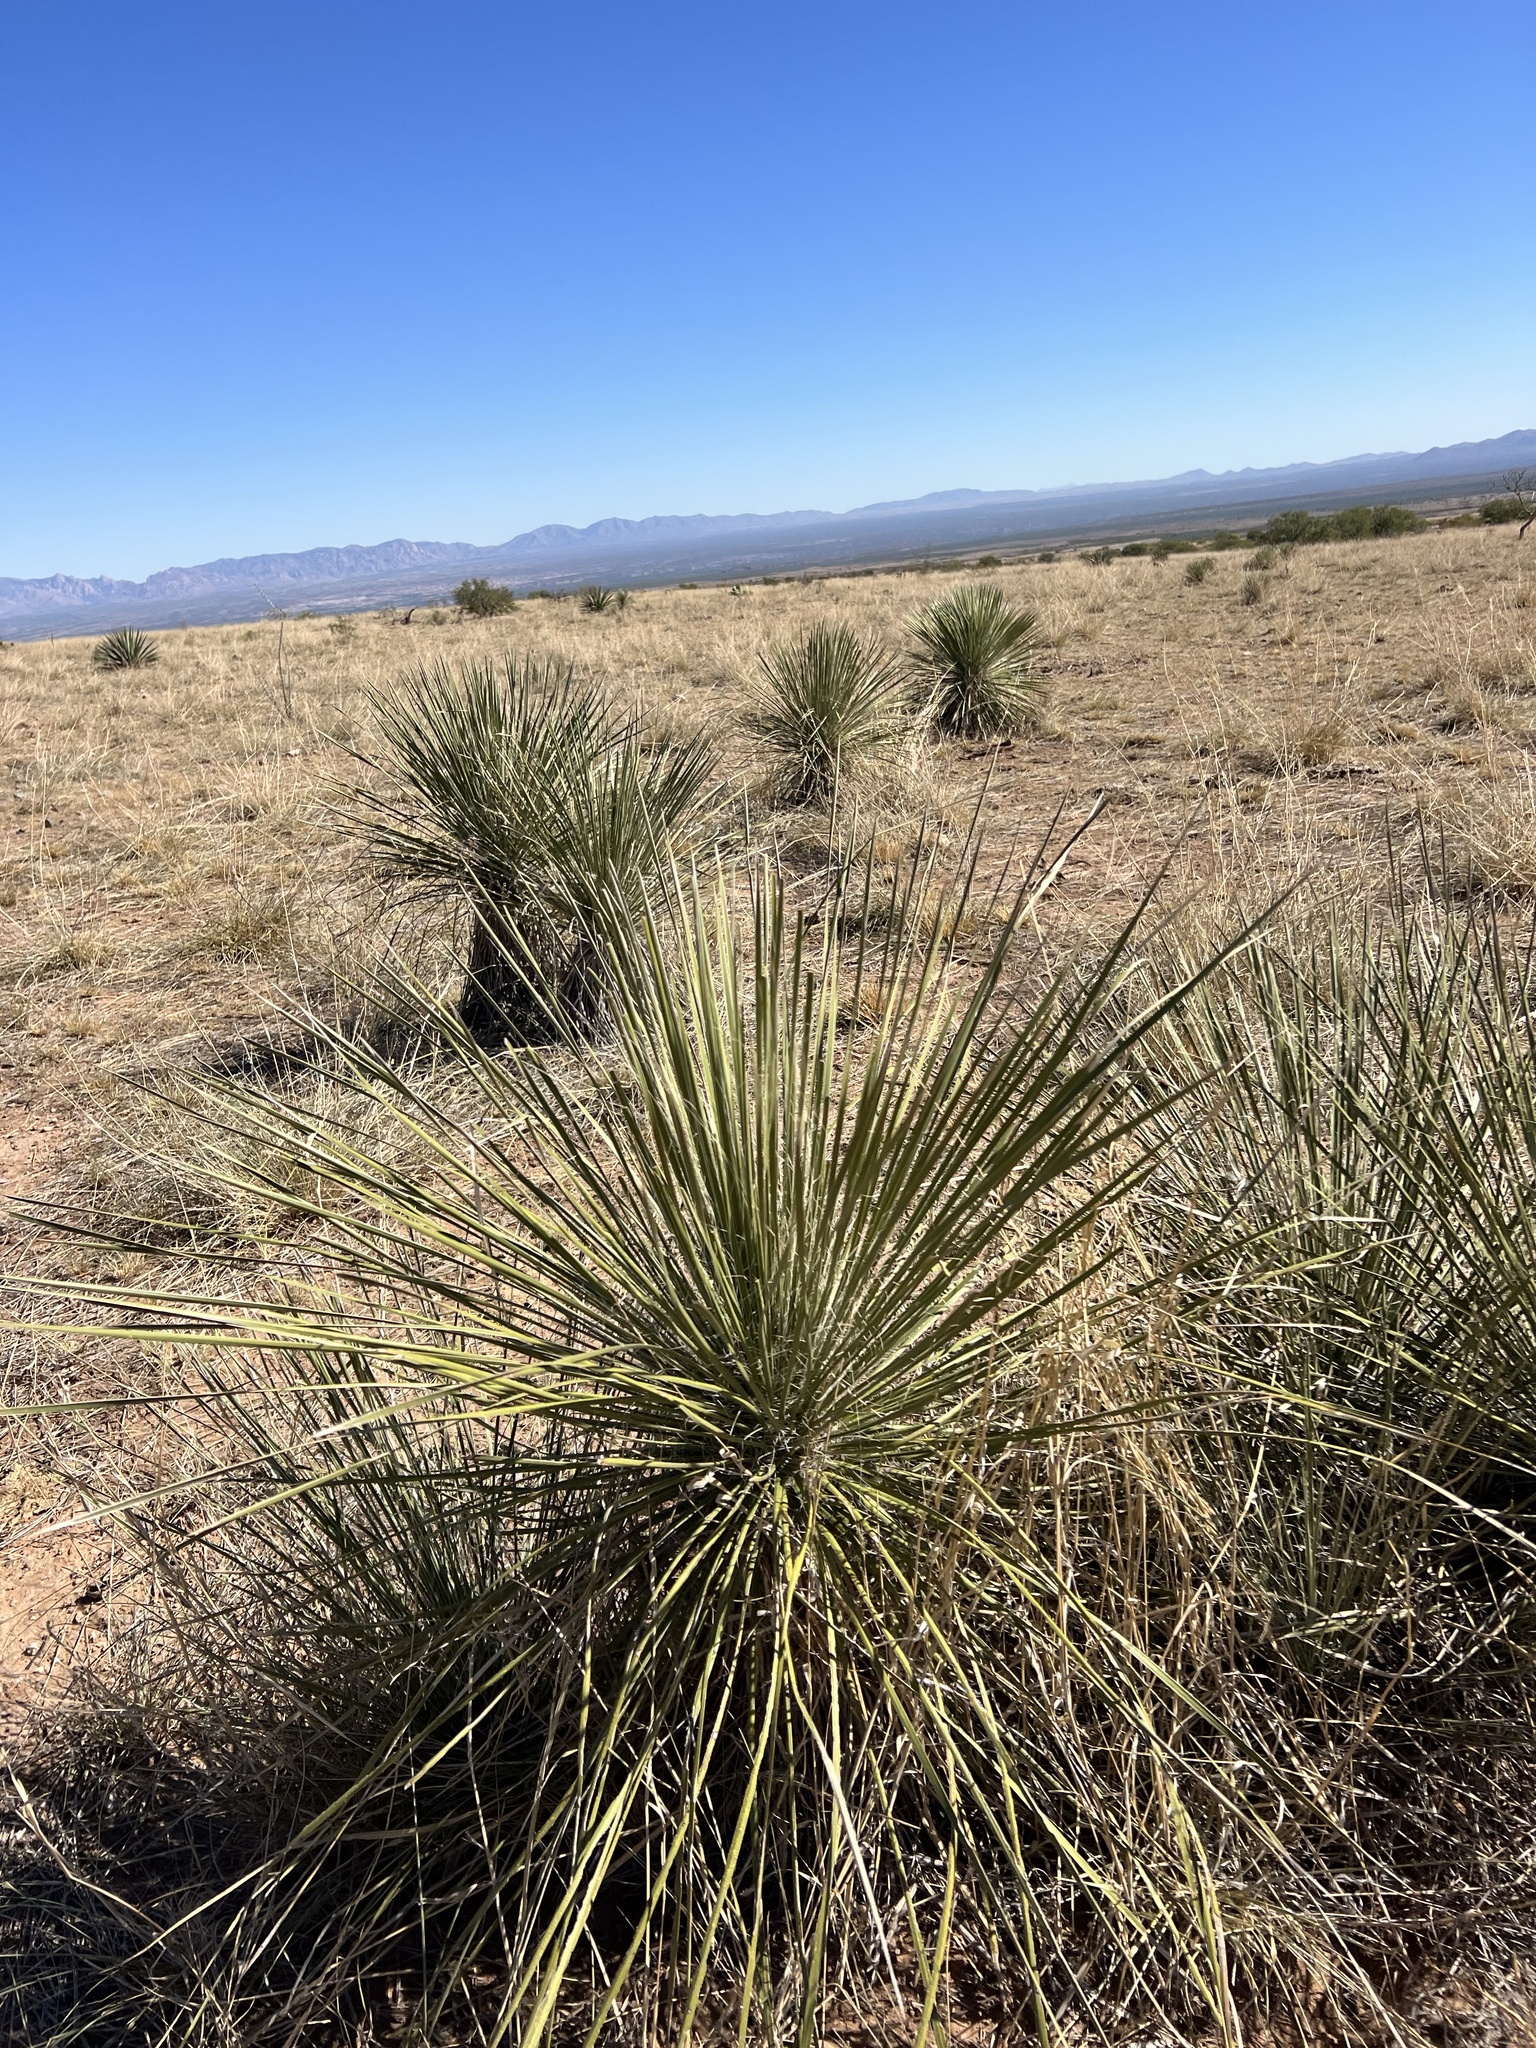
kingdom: Plantae
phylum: Tracheophyta
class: Liliopsida
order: Asparagales
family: Asparagaceae
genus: Yucca
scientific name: Yucca elata
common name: Palmella
